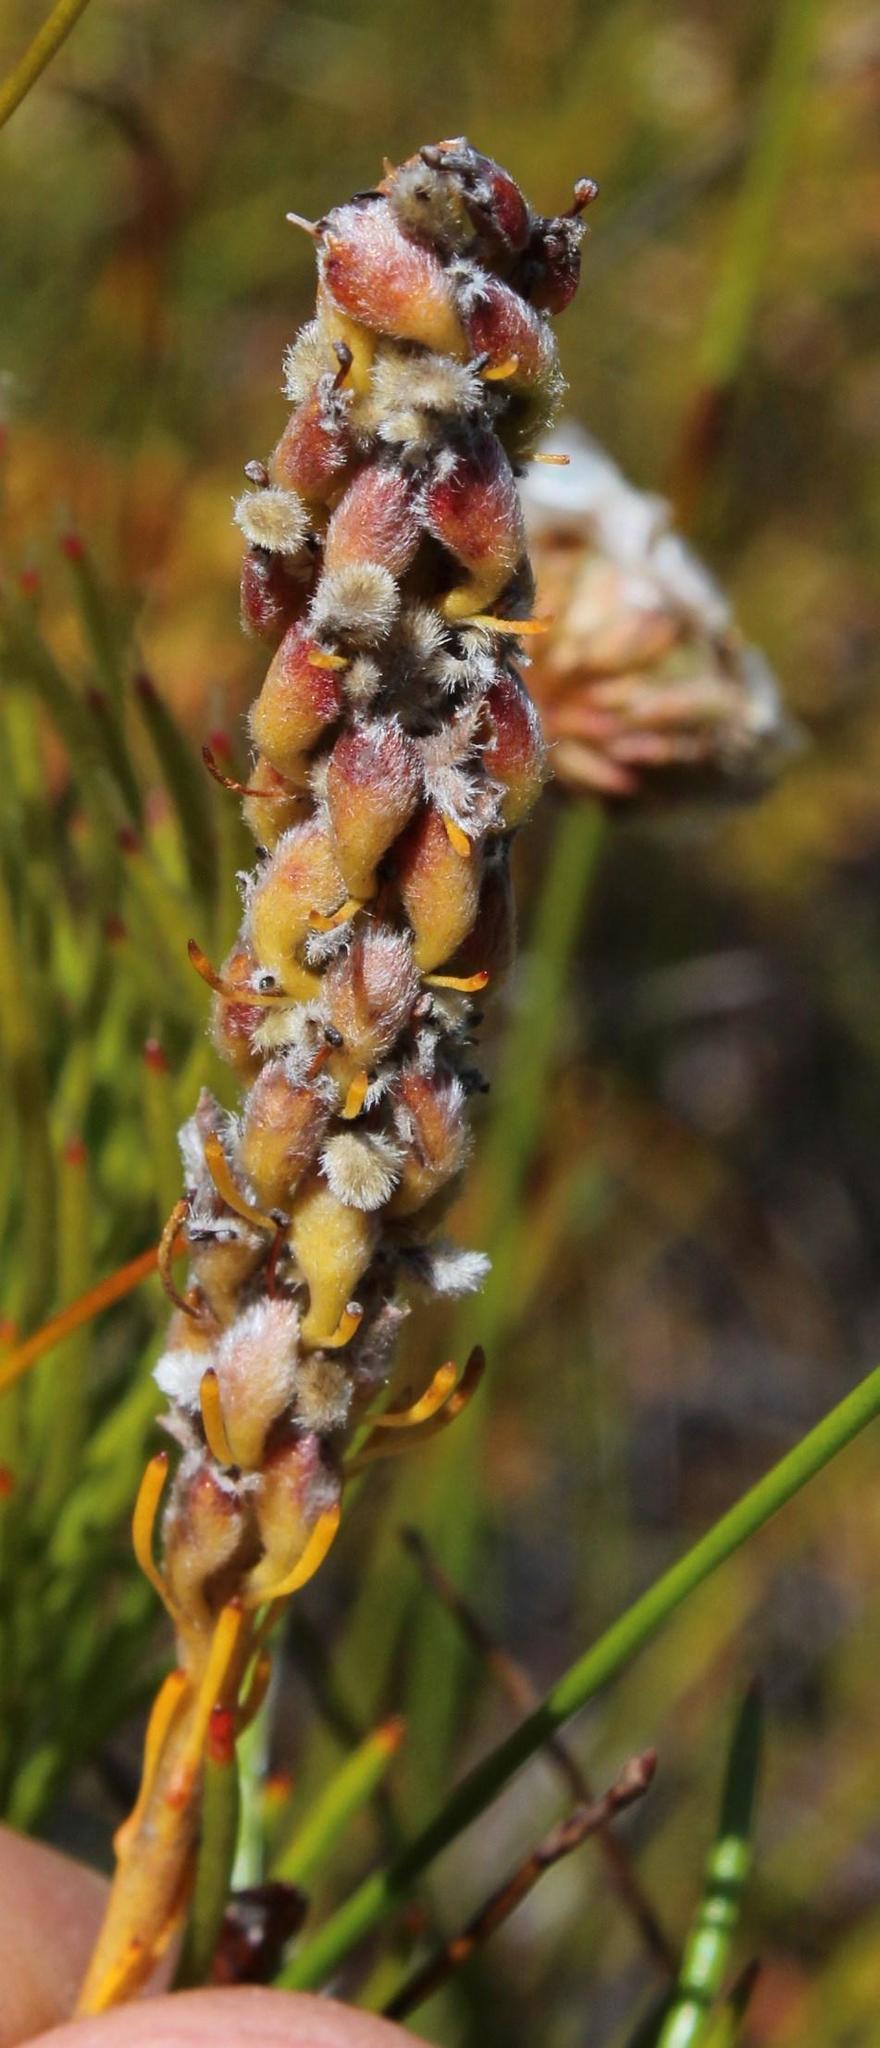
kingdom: Plantae
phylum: Tracheophyta
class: Magnoliopsida
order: Proteales
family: Proteaceae
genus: Spatalla
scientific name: Spatalla curvifolia
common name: White-stalked spoon
